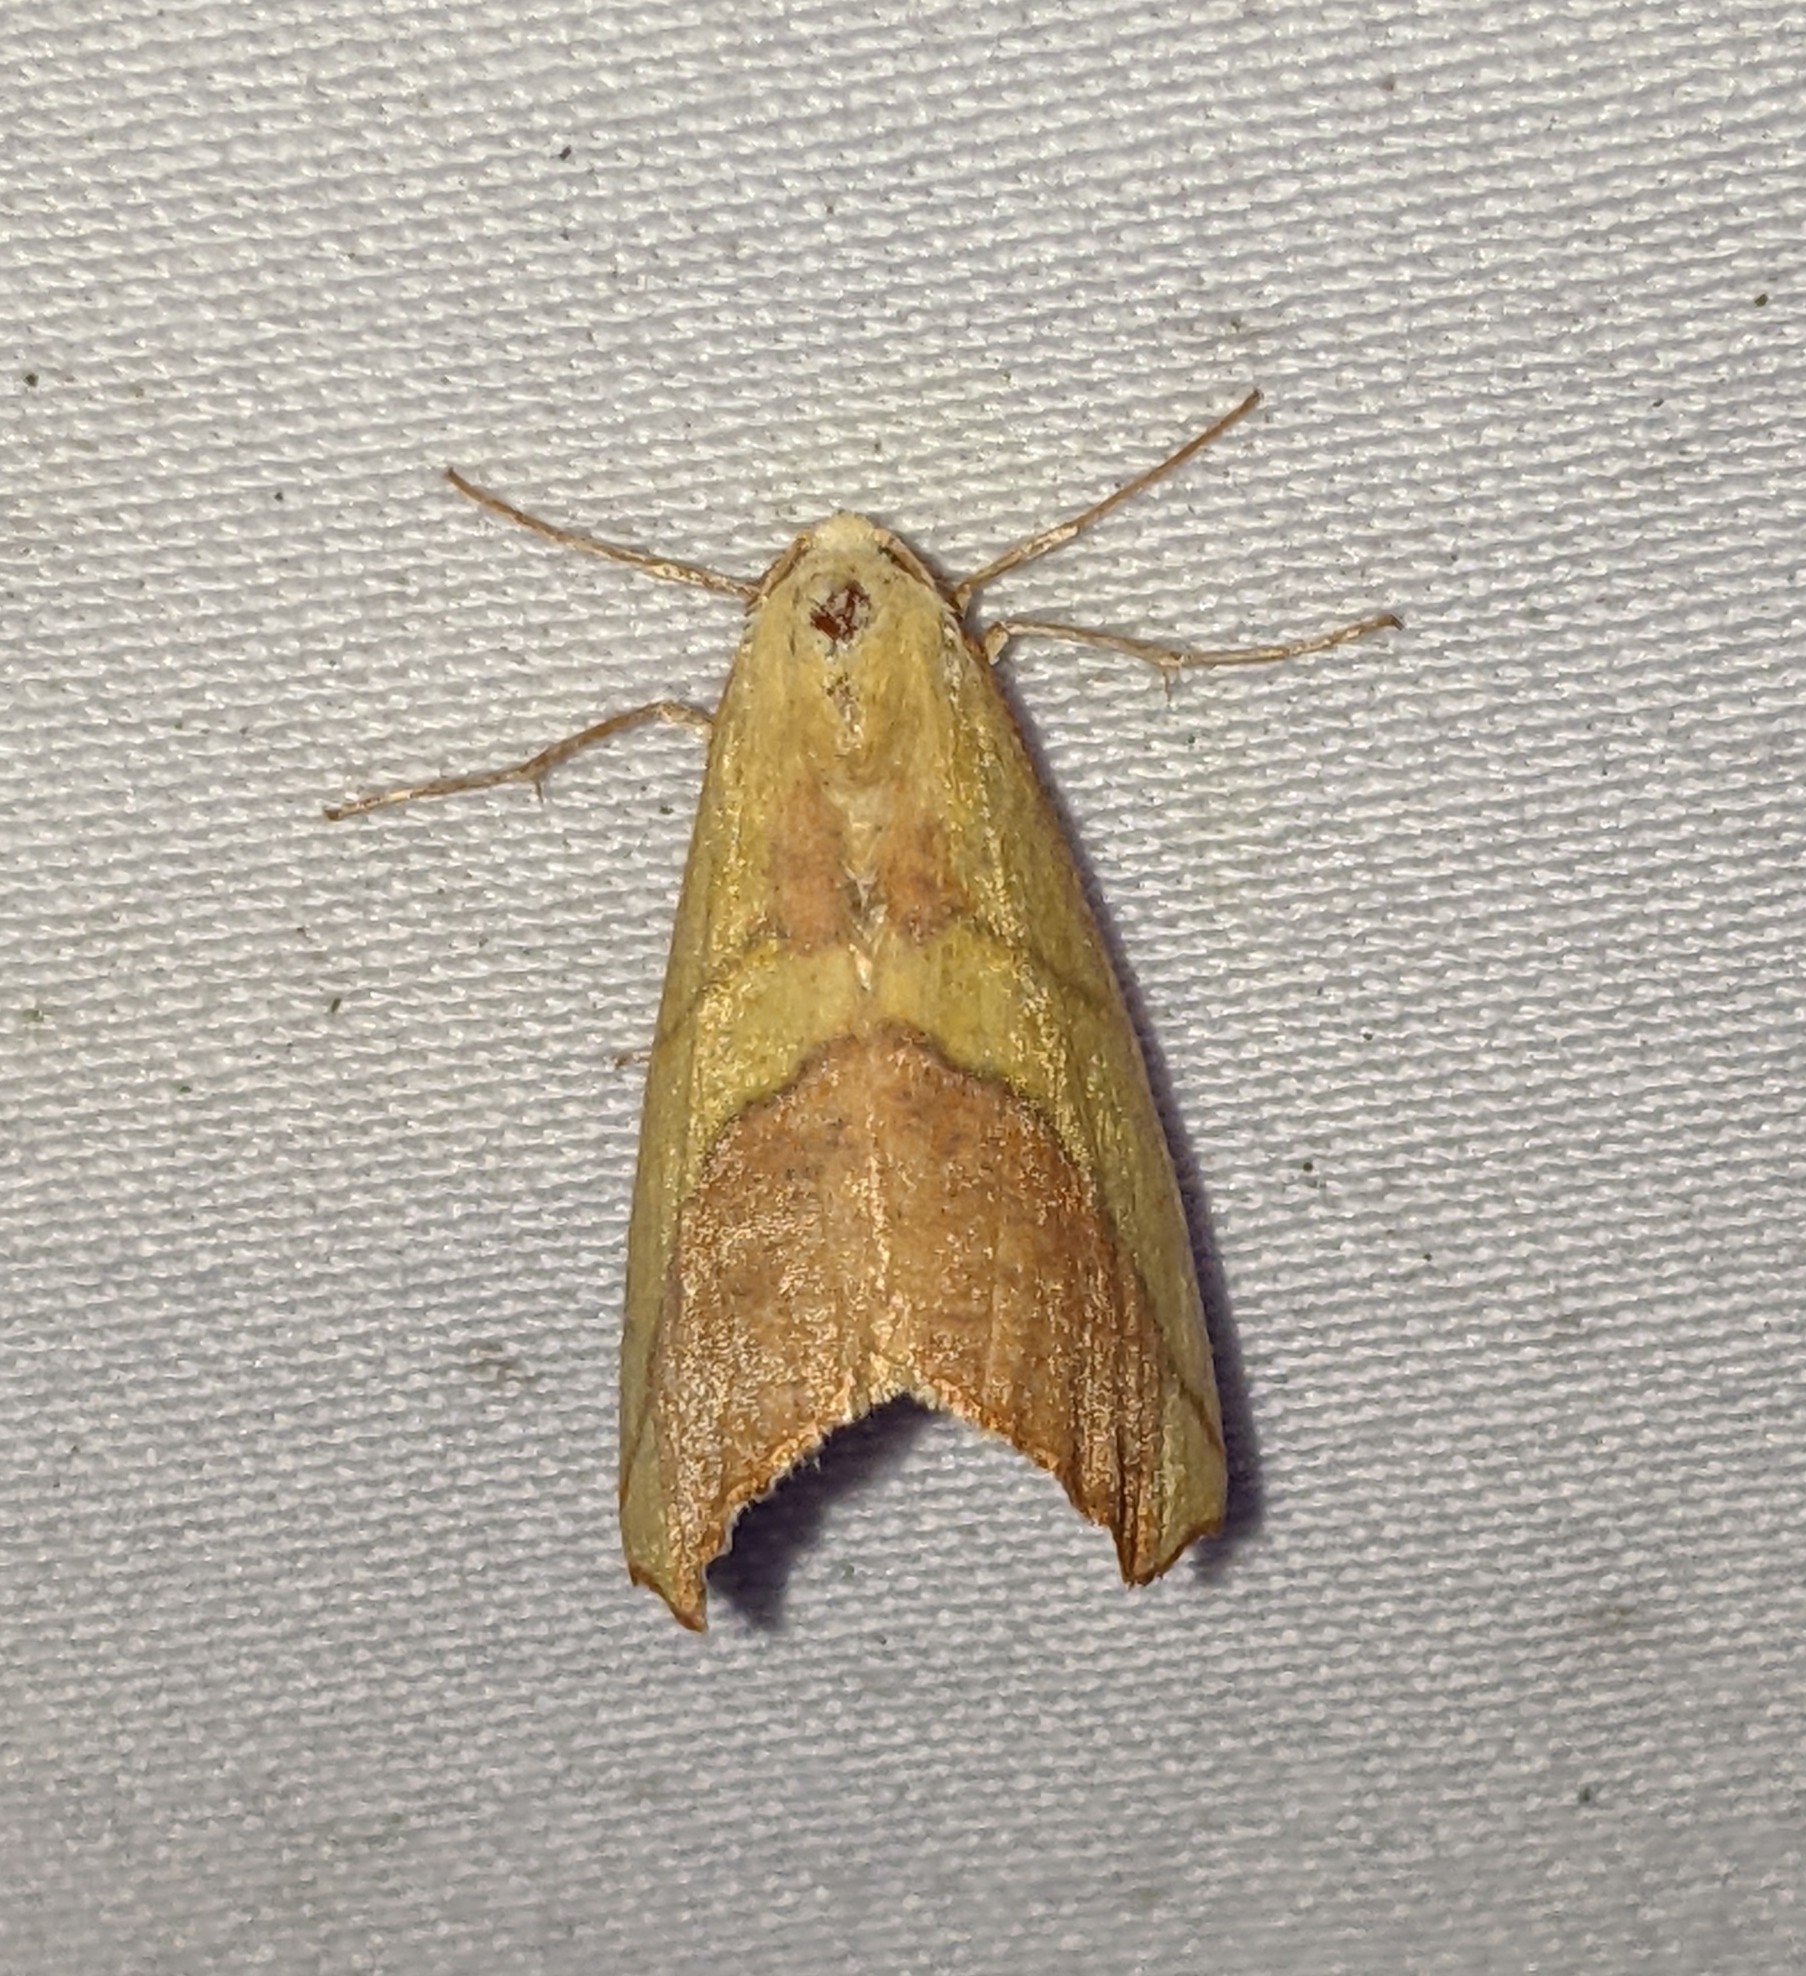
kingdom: Animalia
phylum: Arthropoda
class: Insecta
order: Lepidoptera
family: Geometridae
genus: Sicya
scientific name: Sicya macularia
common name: Sharp-lined yellow
